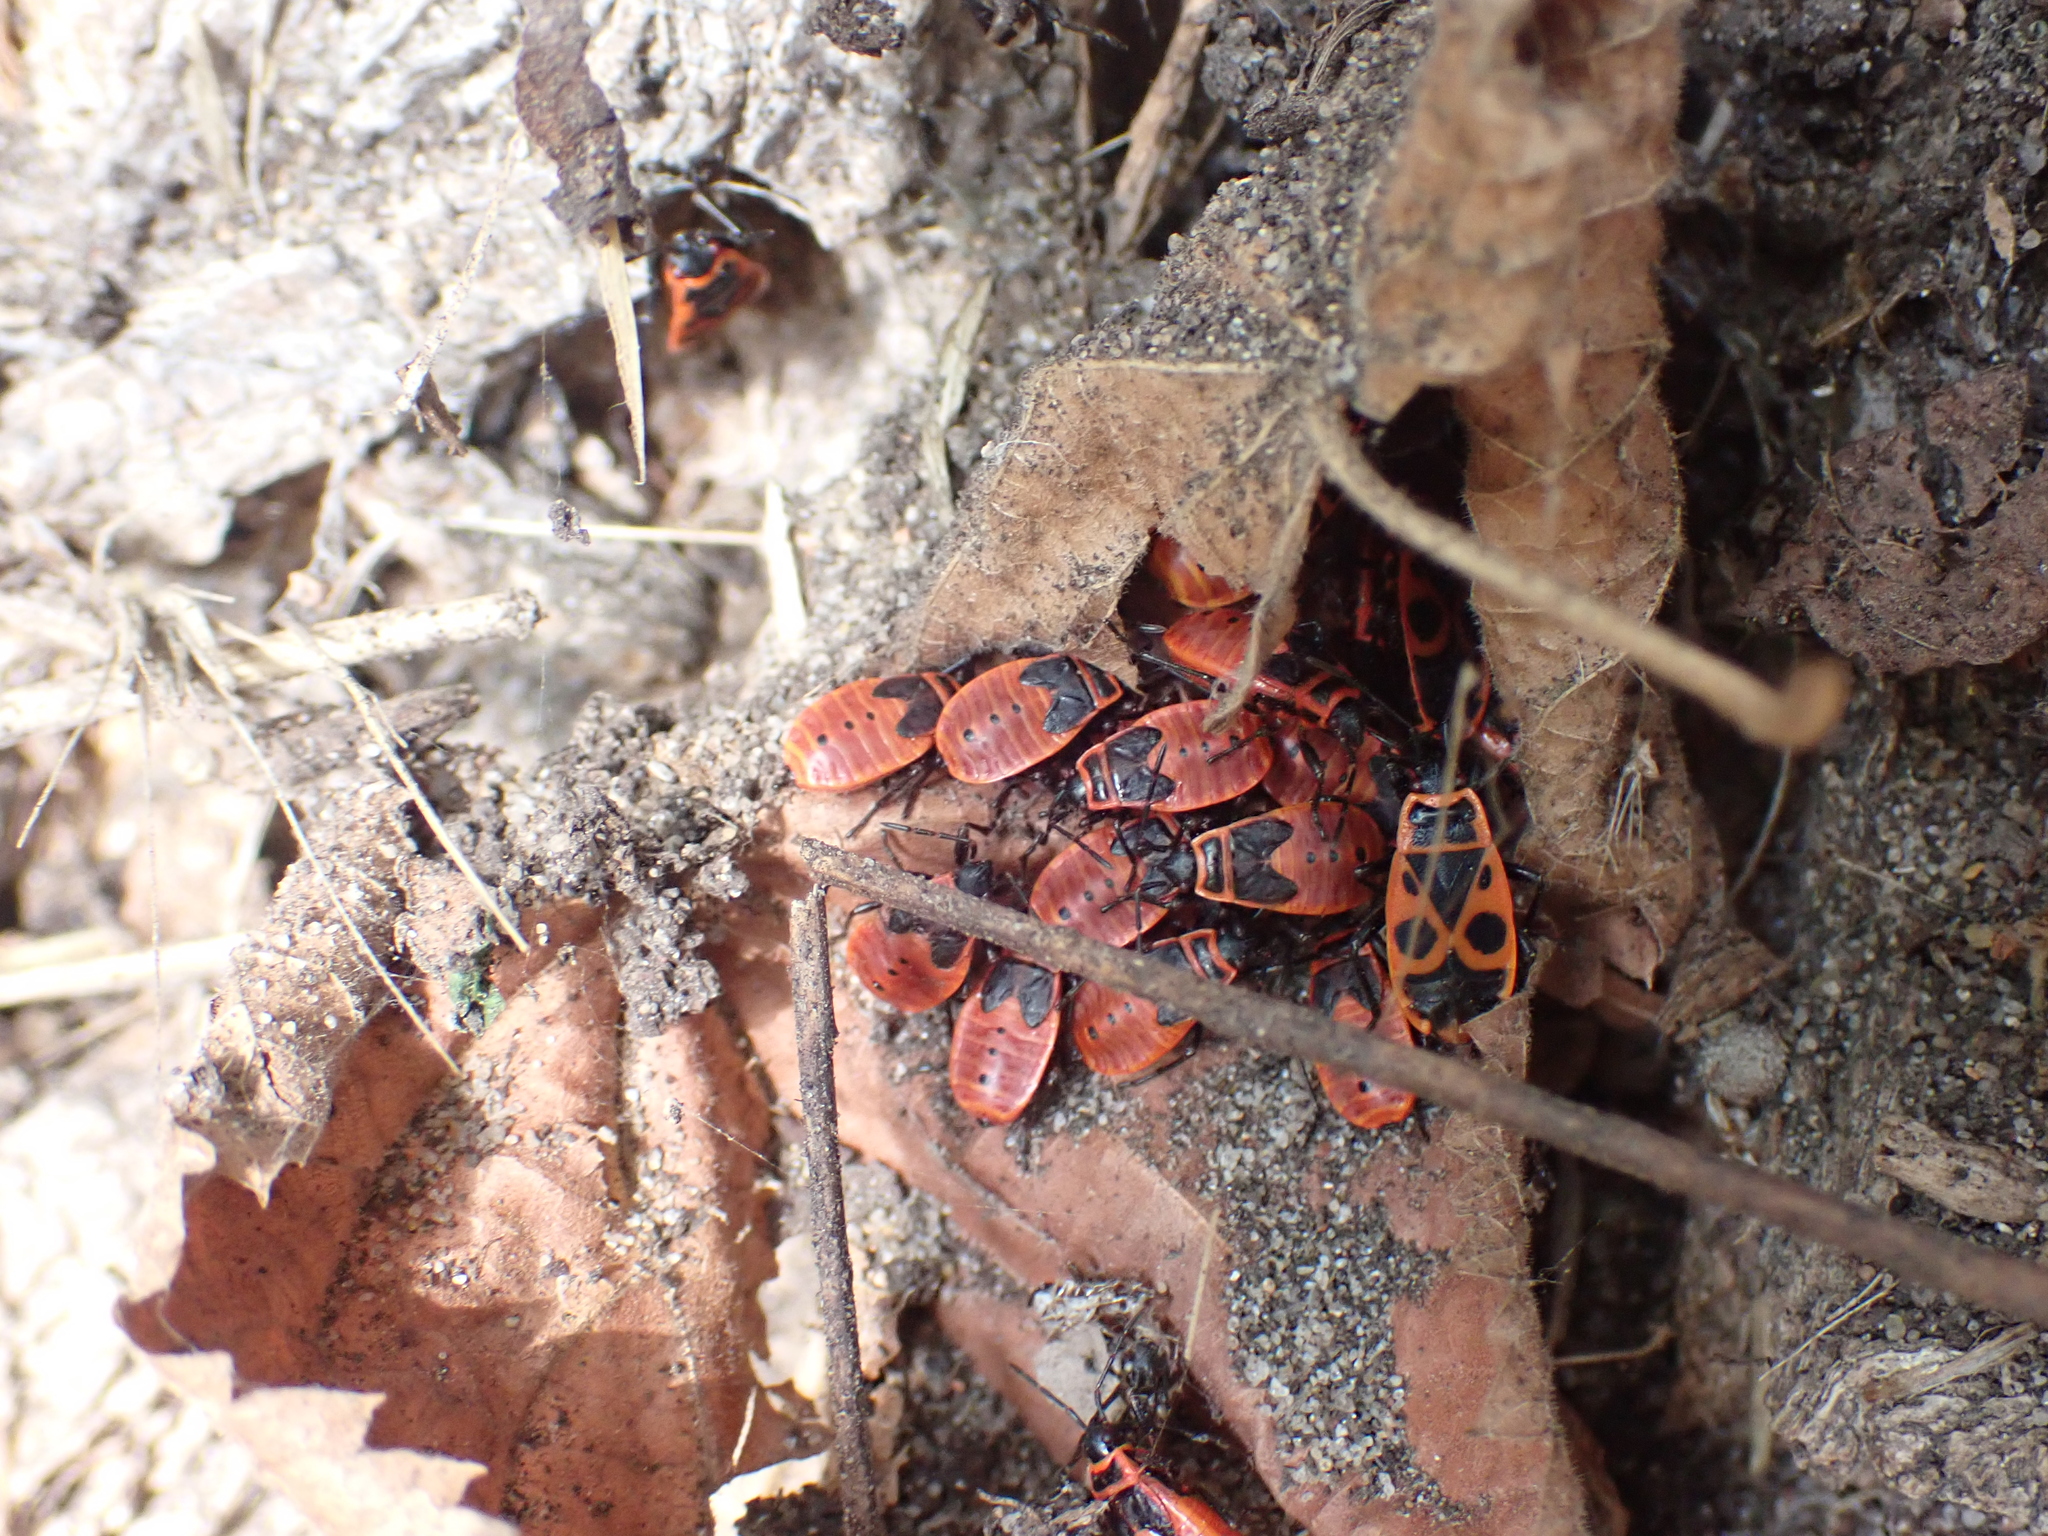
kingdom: Animalia
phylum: Arthropoda
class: Insecta
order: Hemiptera
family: Pyrrhocoridae
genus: Pyrrhocoris
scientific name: Pyrrhocoris apterus
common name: Firebug
